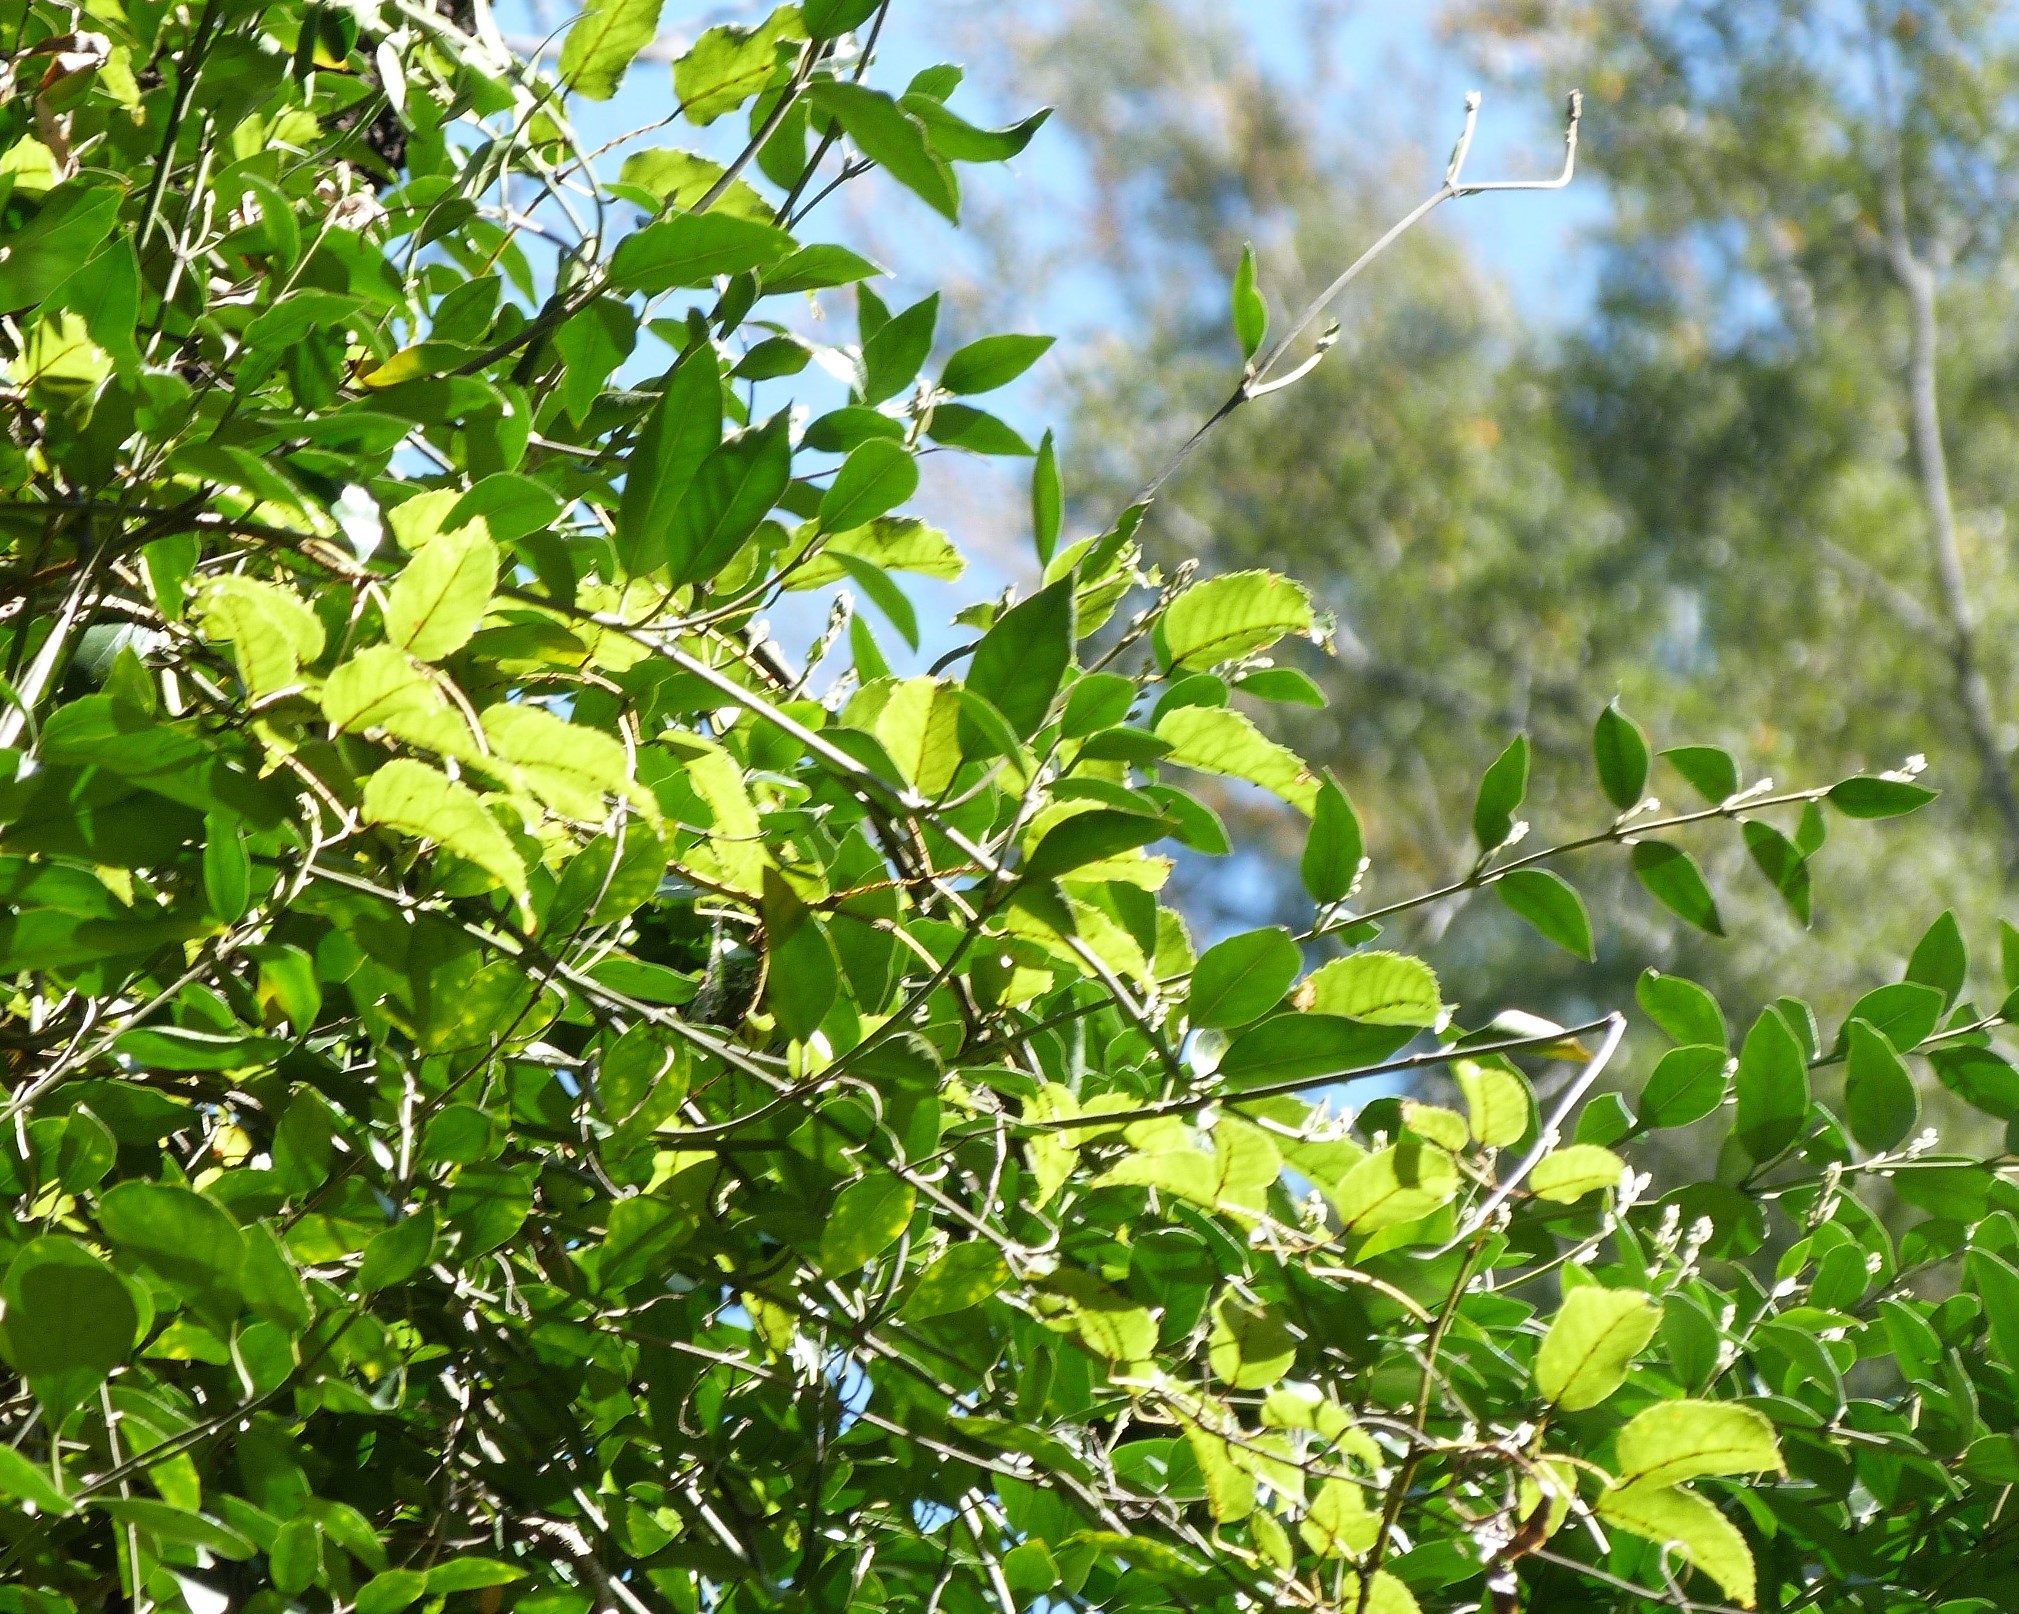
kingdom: Plantae
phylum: Tracheophyta
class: Magnoliopsida
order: Gentianales
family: Apocynaceae
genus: Parsonsia
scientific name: Parsonsia heterophylla
